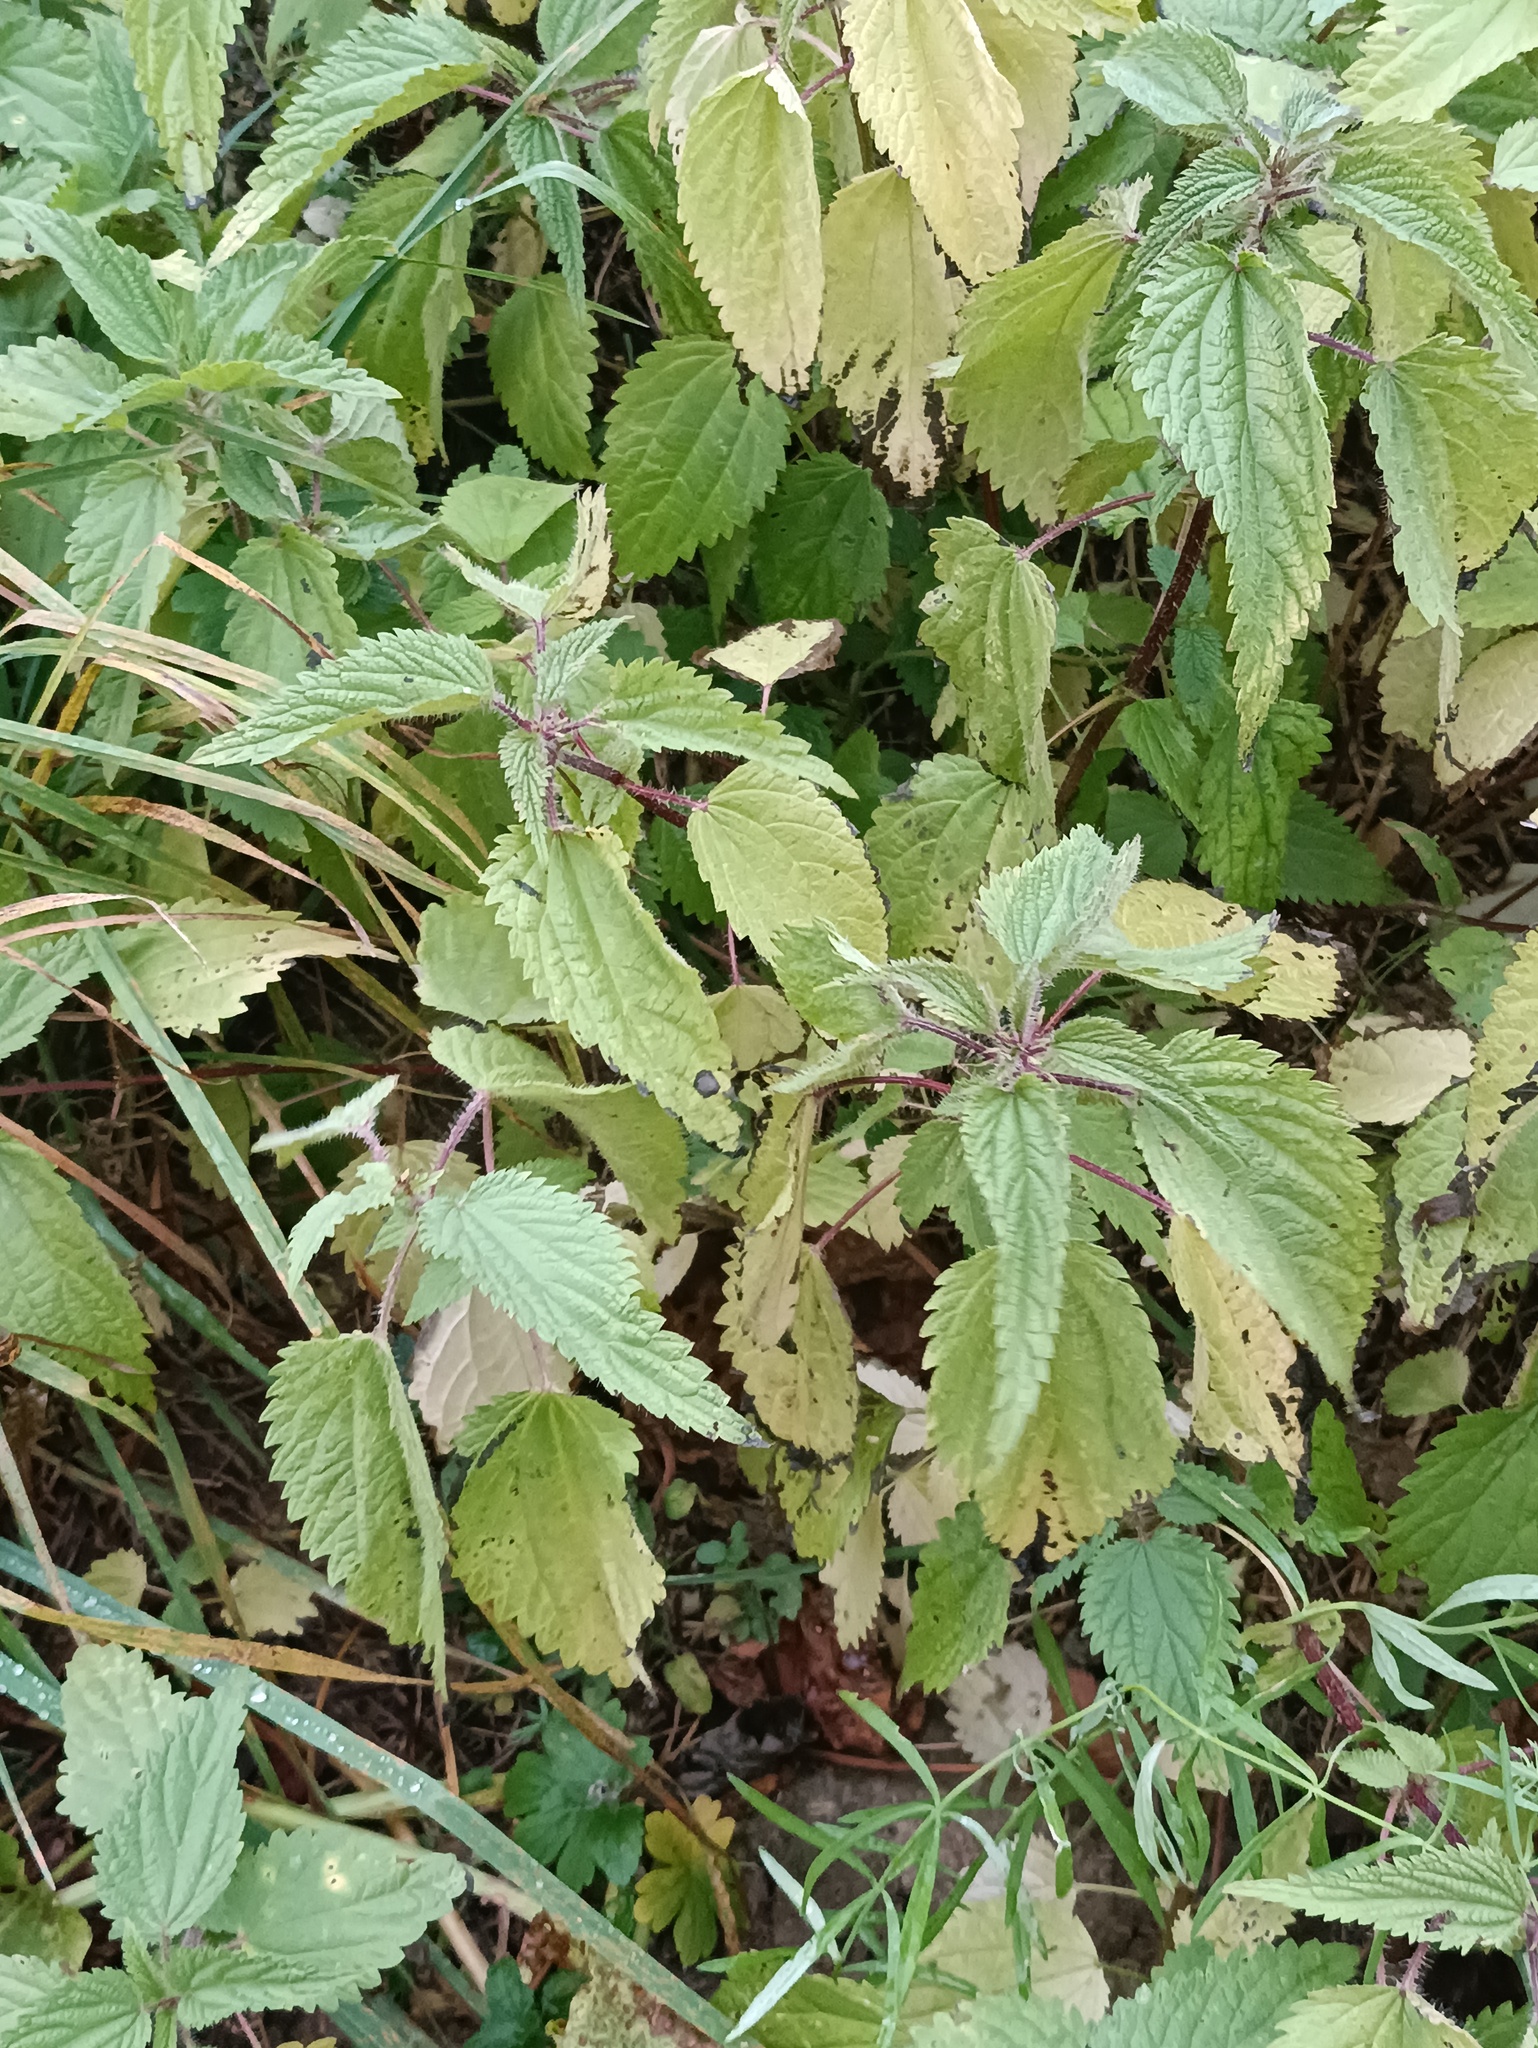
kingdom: Plantae
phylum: Tracheophyta
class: Magnoliopsida
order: Rosales
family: Urticaceae
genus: Urtica
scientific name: Urtica dioica
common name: Common nettle
